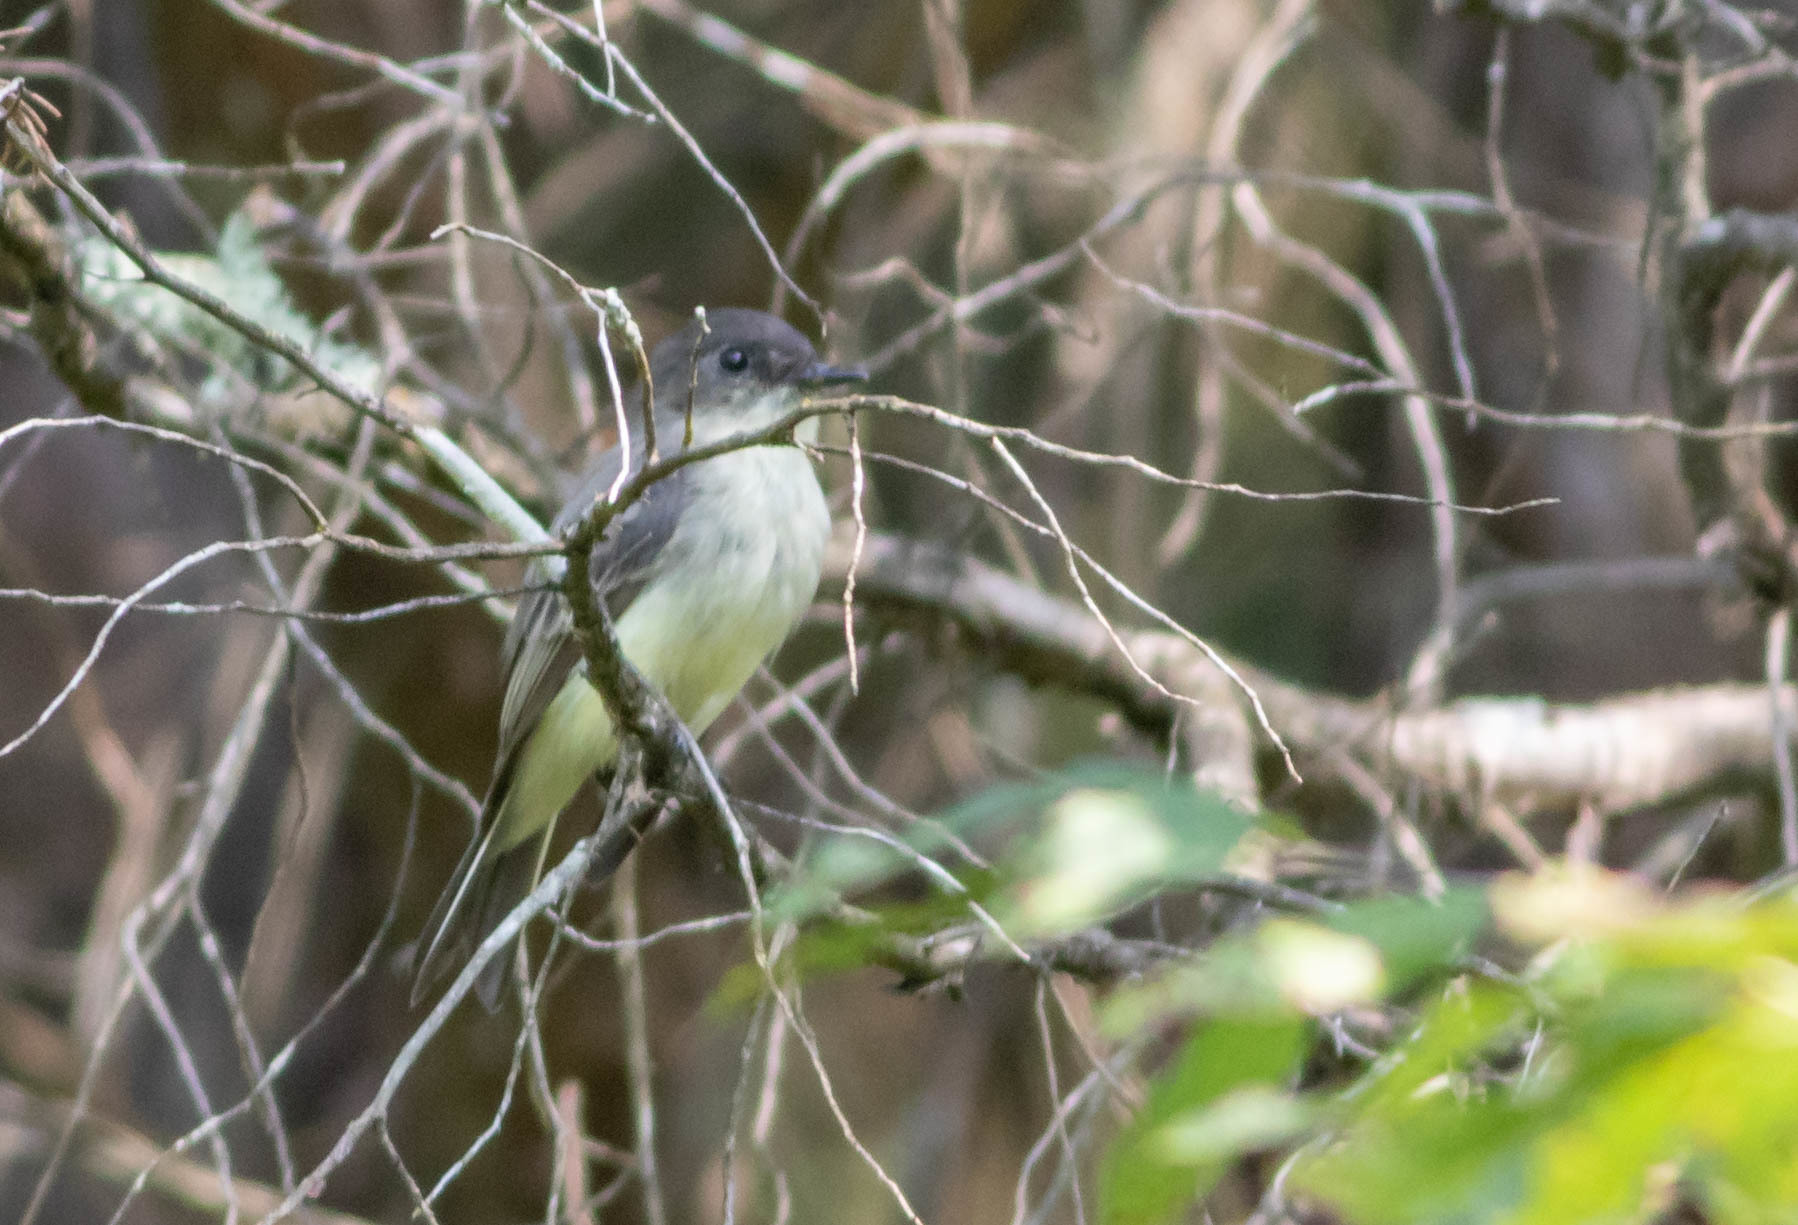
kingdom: Animalia
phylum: Chordata
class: Aves
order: Passeriformes
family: Tyrannidae
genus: Sayornis
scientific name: Sayornis phoebe
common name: Eastern phoebe
